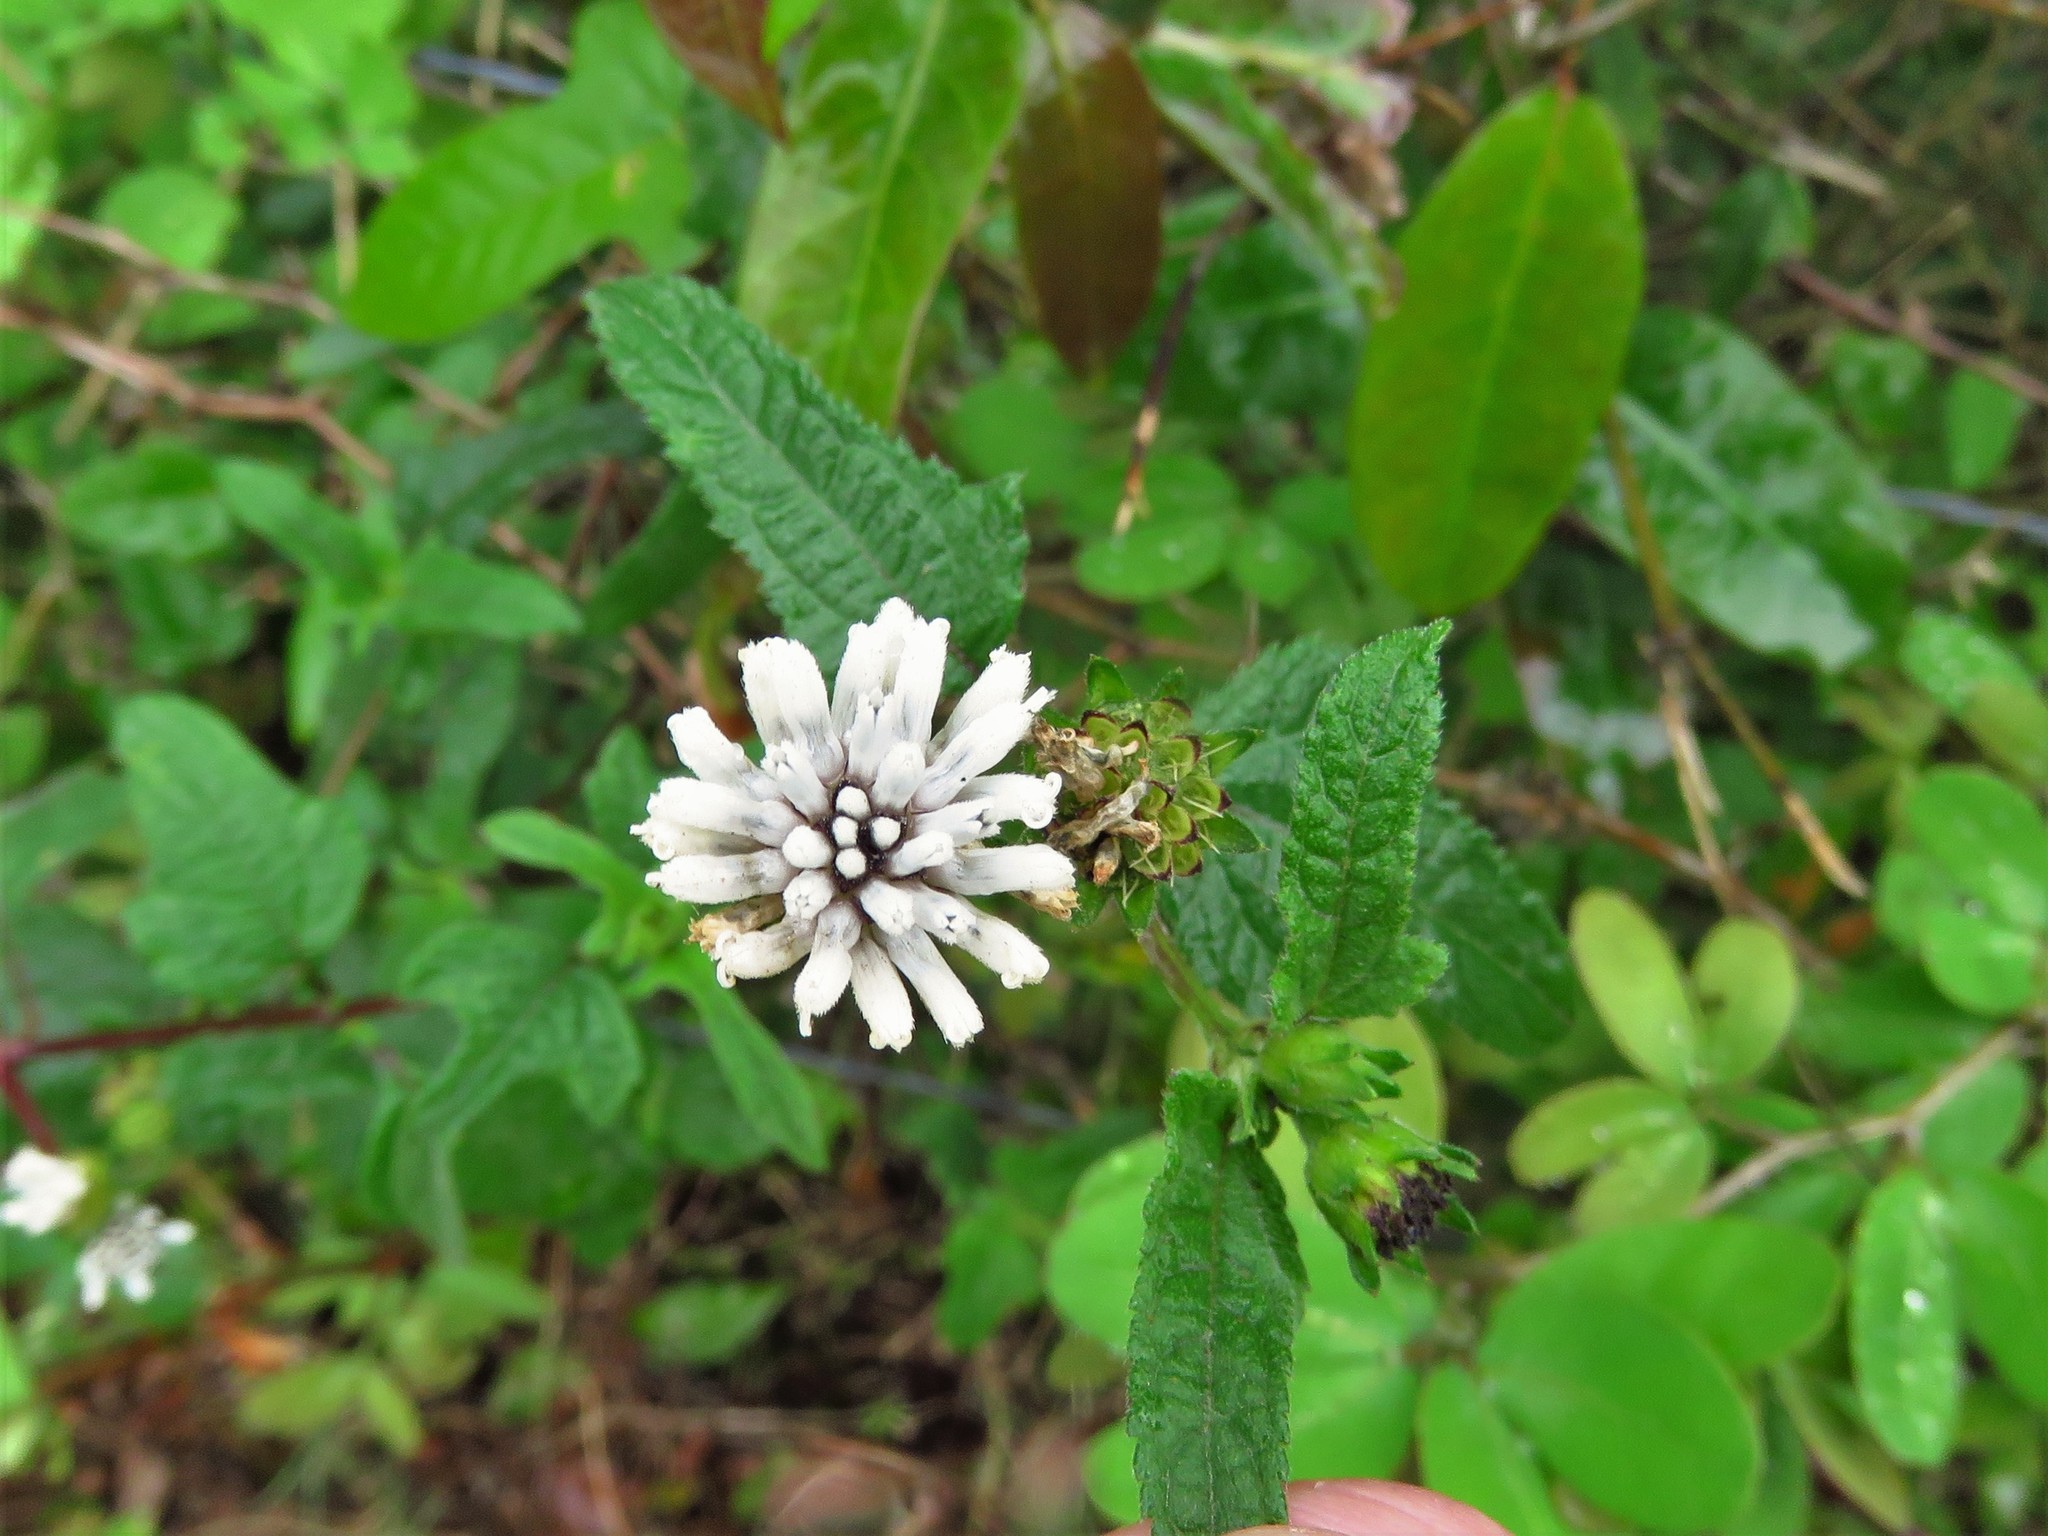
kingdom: Plantae
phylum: Tracheophyta
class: Magnoliopsida
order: Asterales
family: Asteraceae
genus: Melanthera
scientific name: Melanthera nivea
